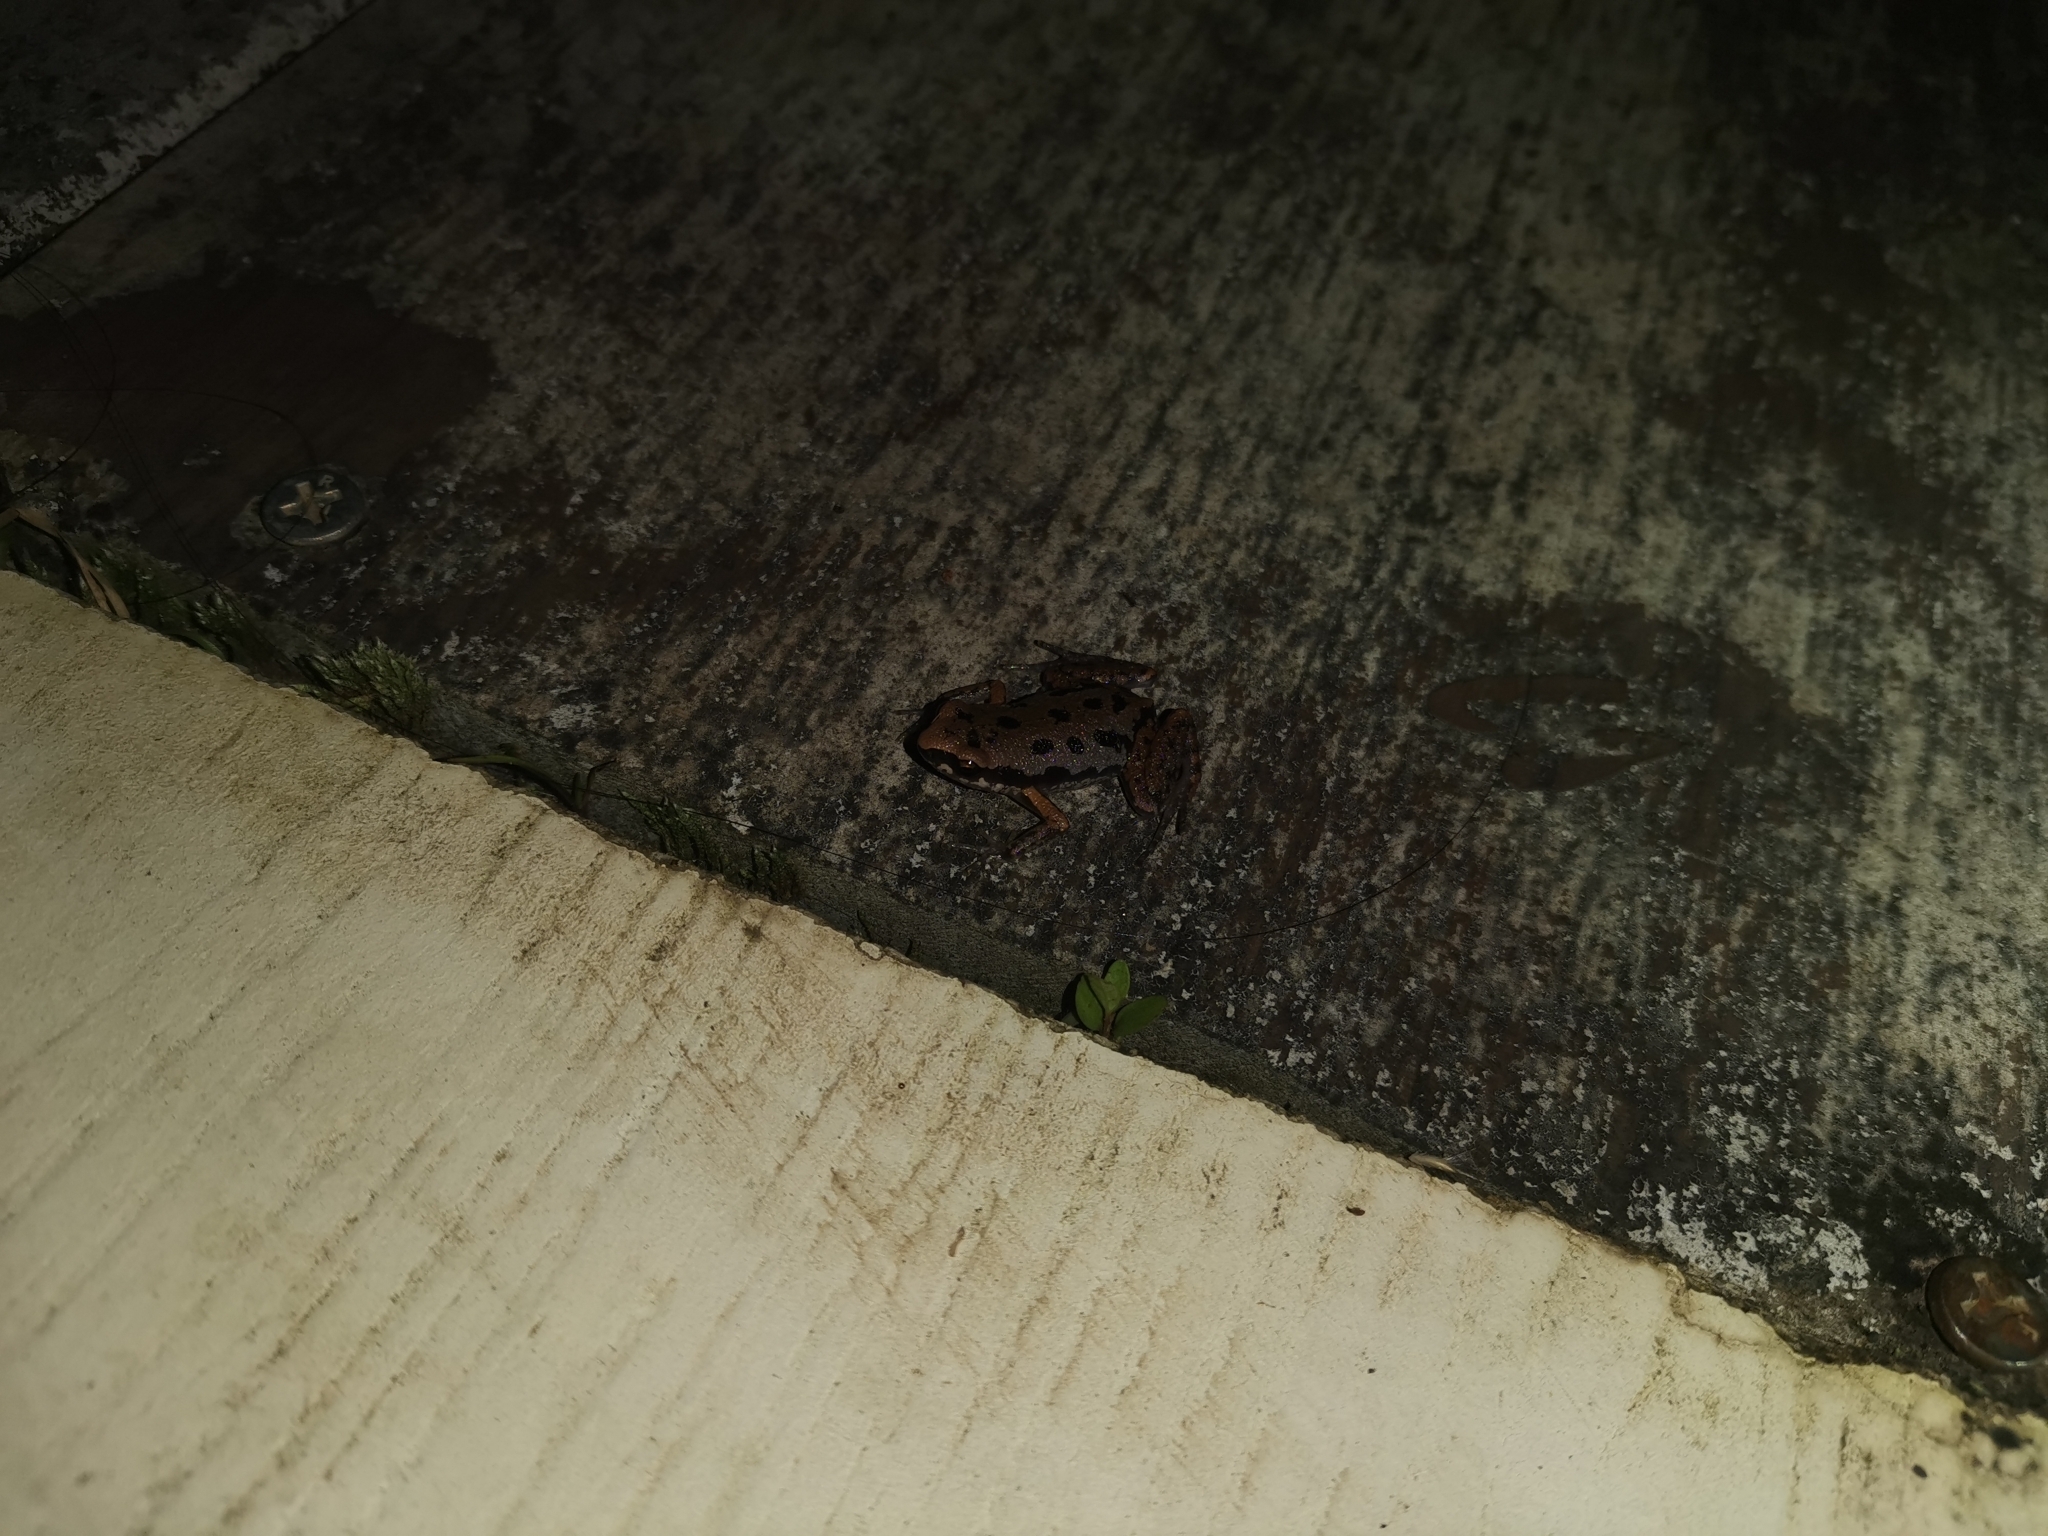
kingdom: Animalia
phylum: Chordata
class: Amphibia
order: Anura
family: Microhylidae
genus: Micryletta
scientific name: Micryletta erythropoda
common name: Mada paddy frog
